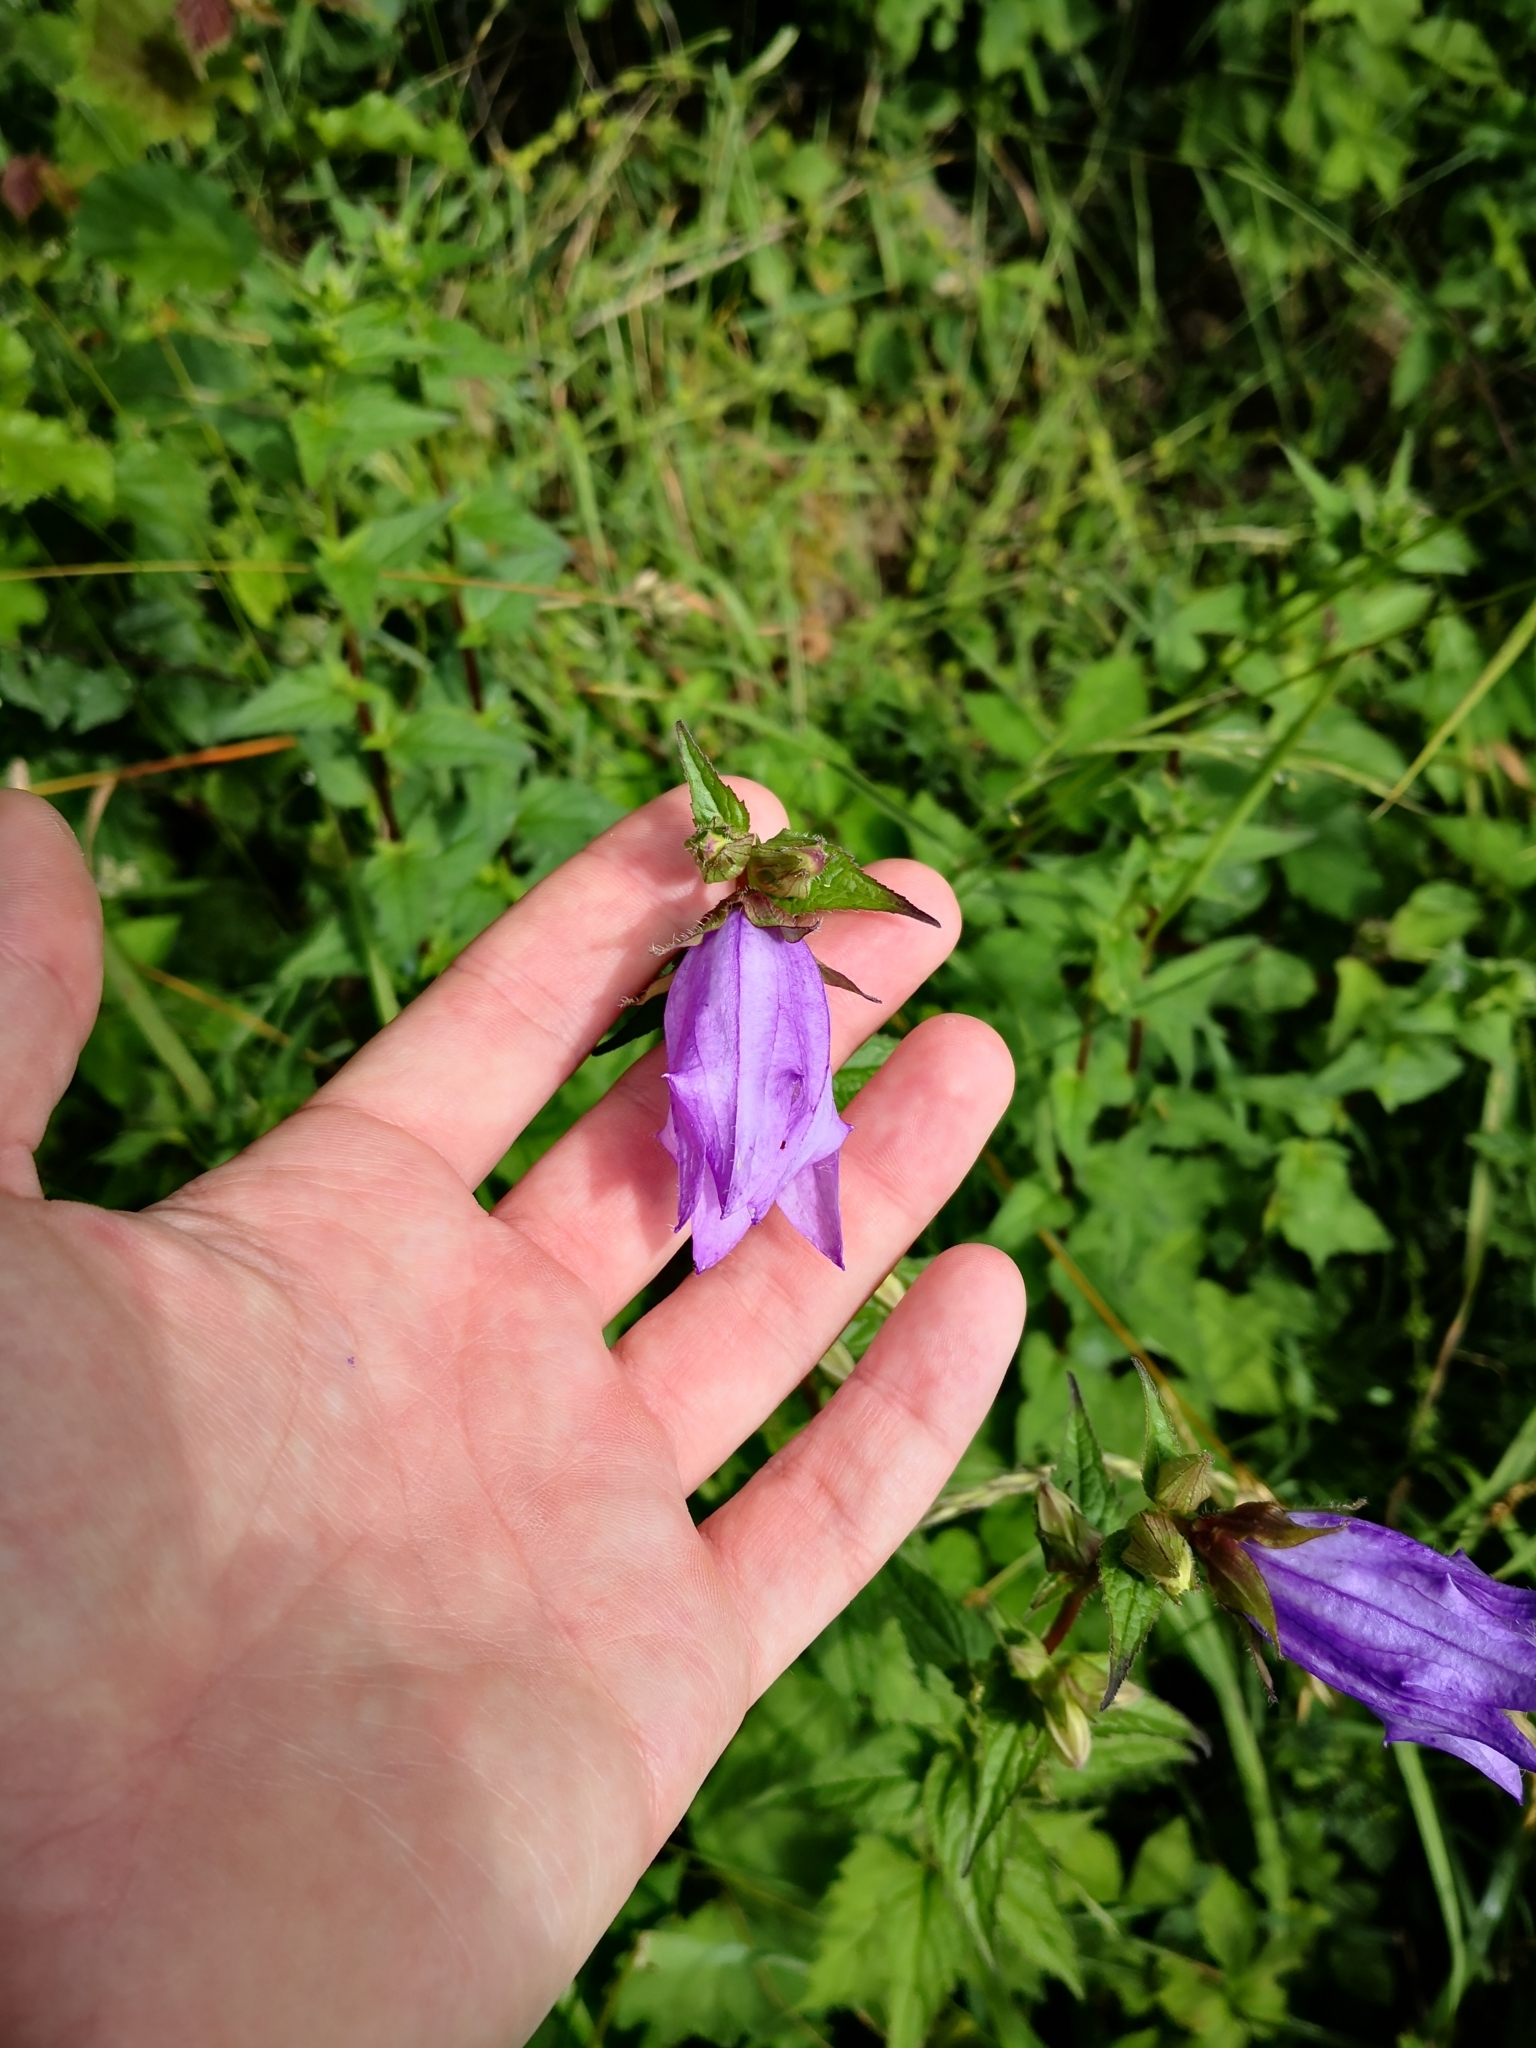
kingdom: Plantae
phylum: Tracheophyta
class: Magnoliopsida
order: Asterales
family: Campanulaceae
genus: Campanula
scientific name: Campanula trachelium
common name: Nettle-leaved bellflower
